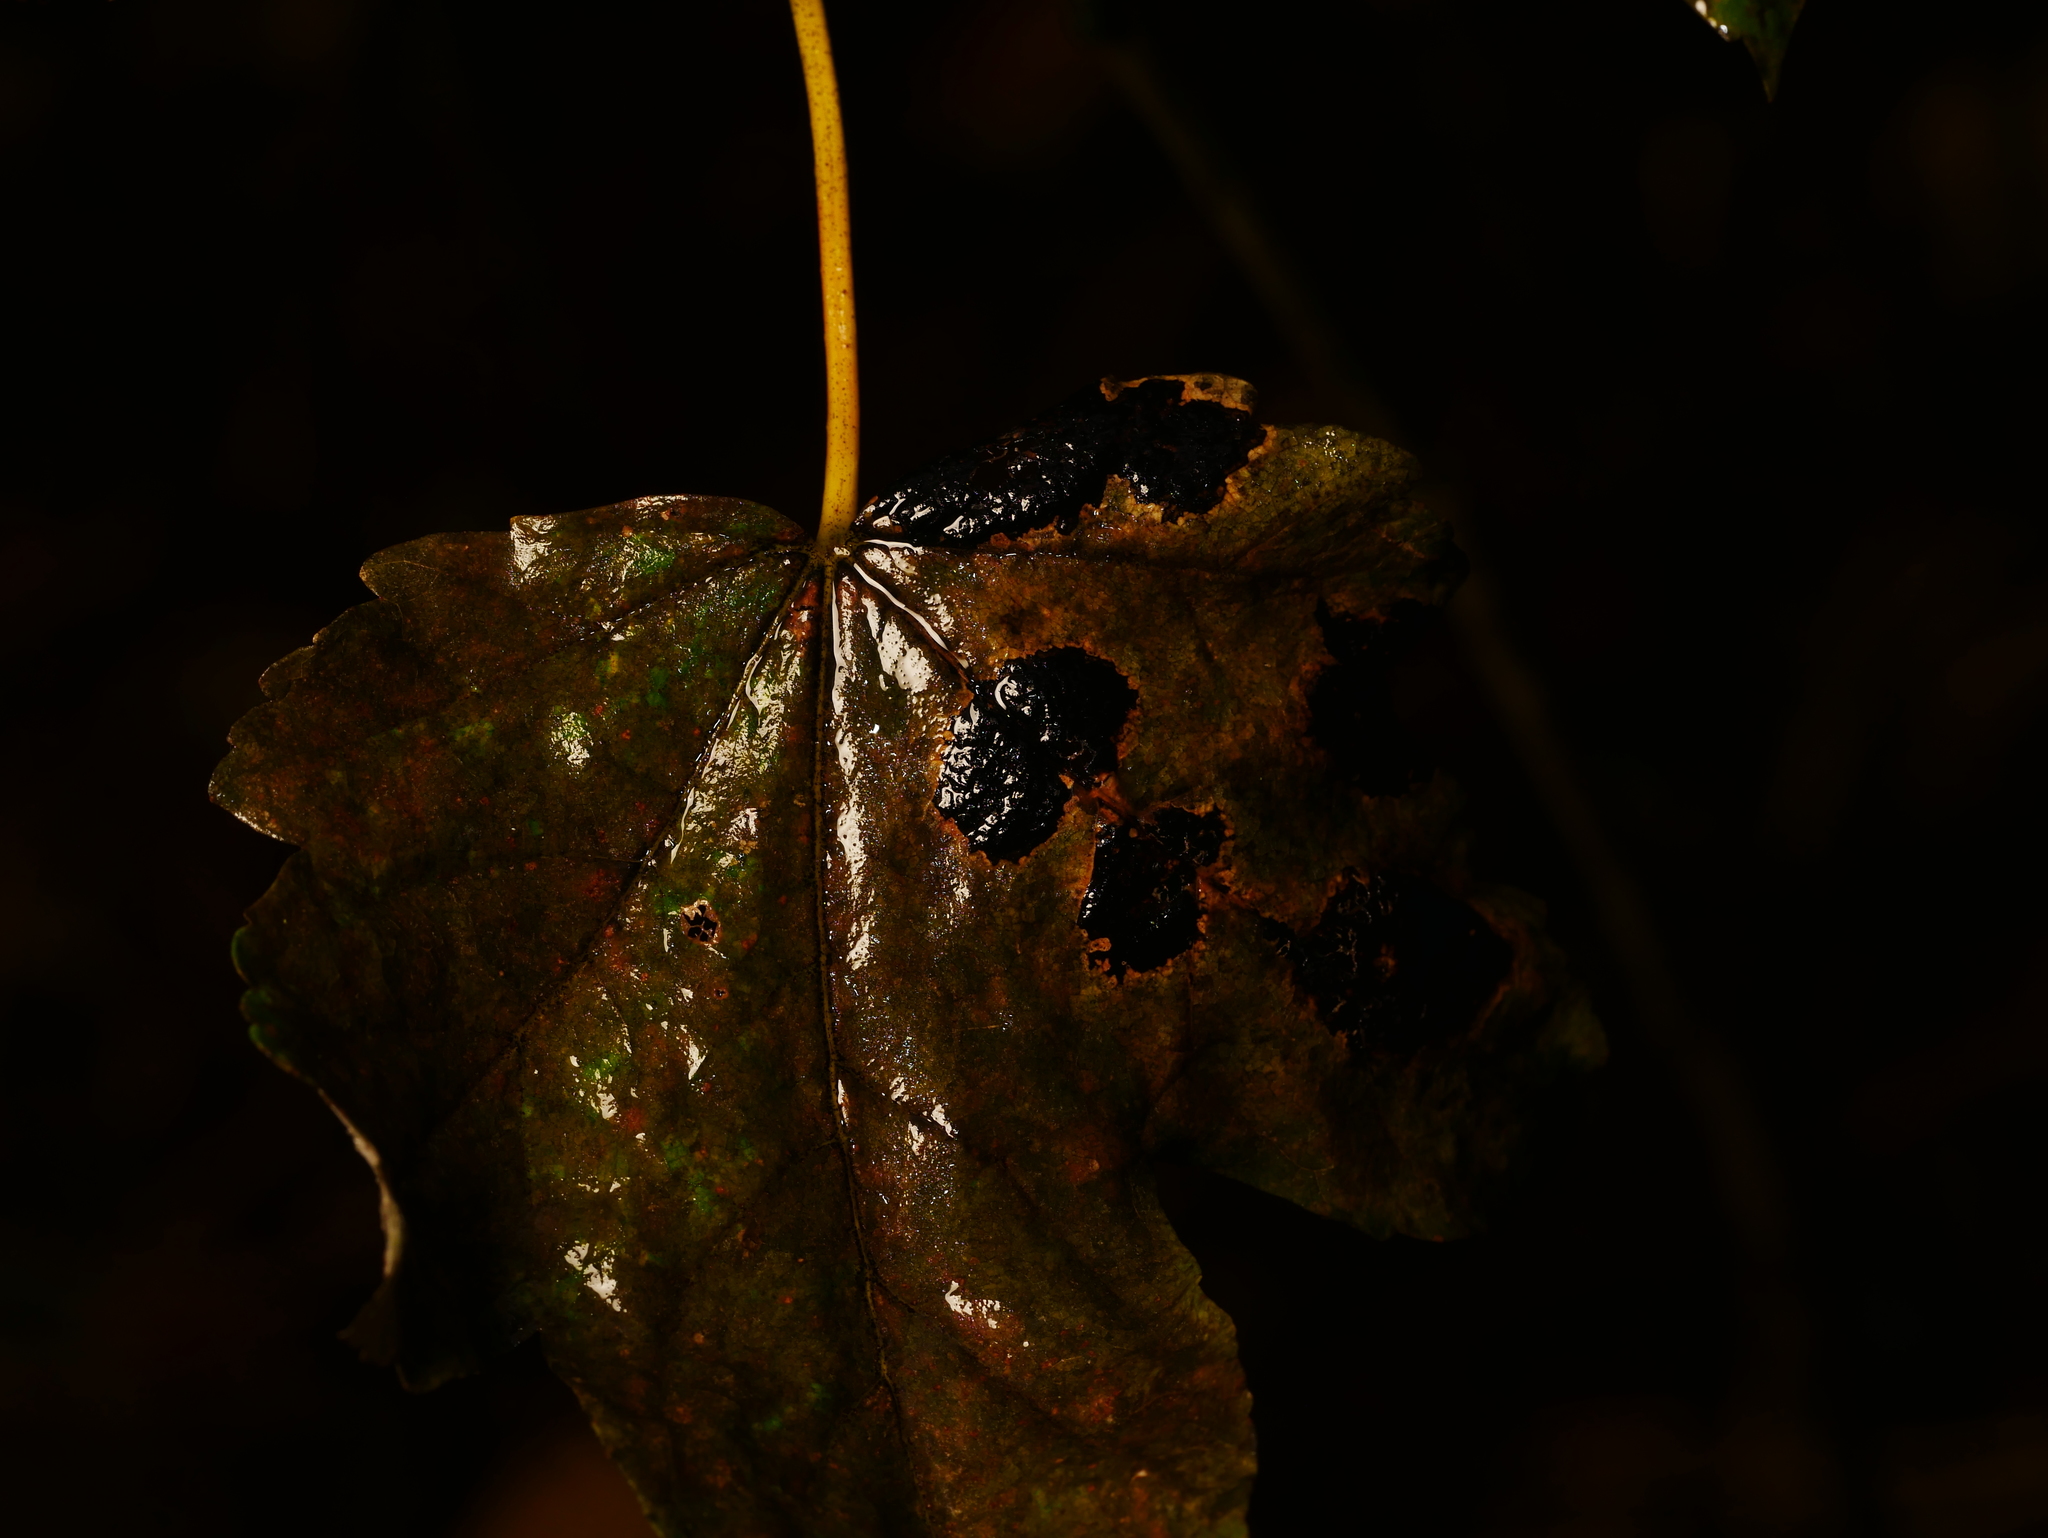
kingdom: Fungi
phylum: Ascomycota
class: Leotiomycetes
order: Rhytismatales
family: Rhytismataceae
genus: Rhytisma
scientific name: Rhytisma acerinum
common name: European tar spot
